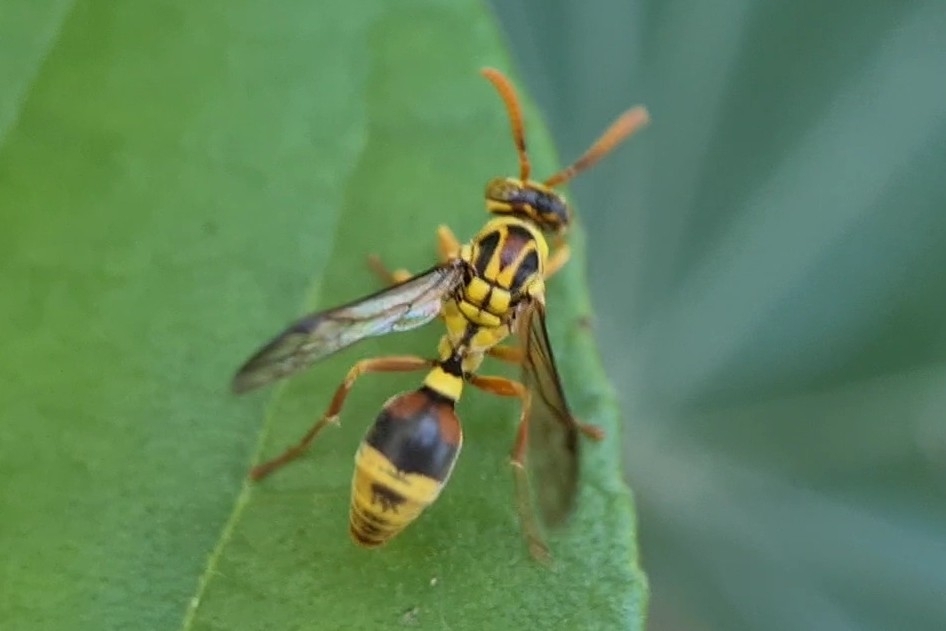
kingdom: Animalia
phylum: Arthropoda
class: Insecta
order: Hymenoptera
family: Vespidae
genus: Ropalidia
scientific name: Ropalidia romandi
